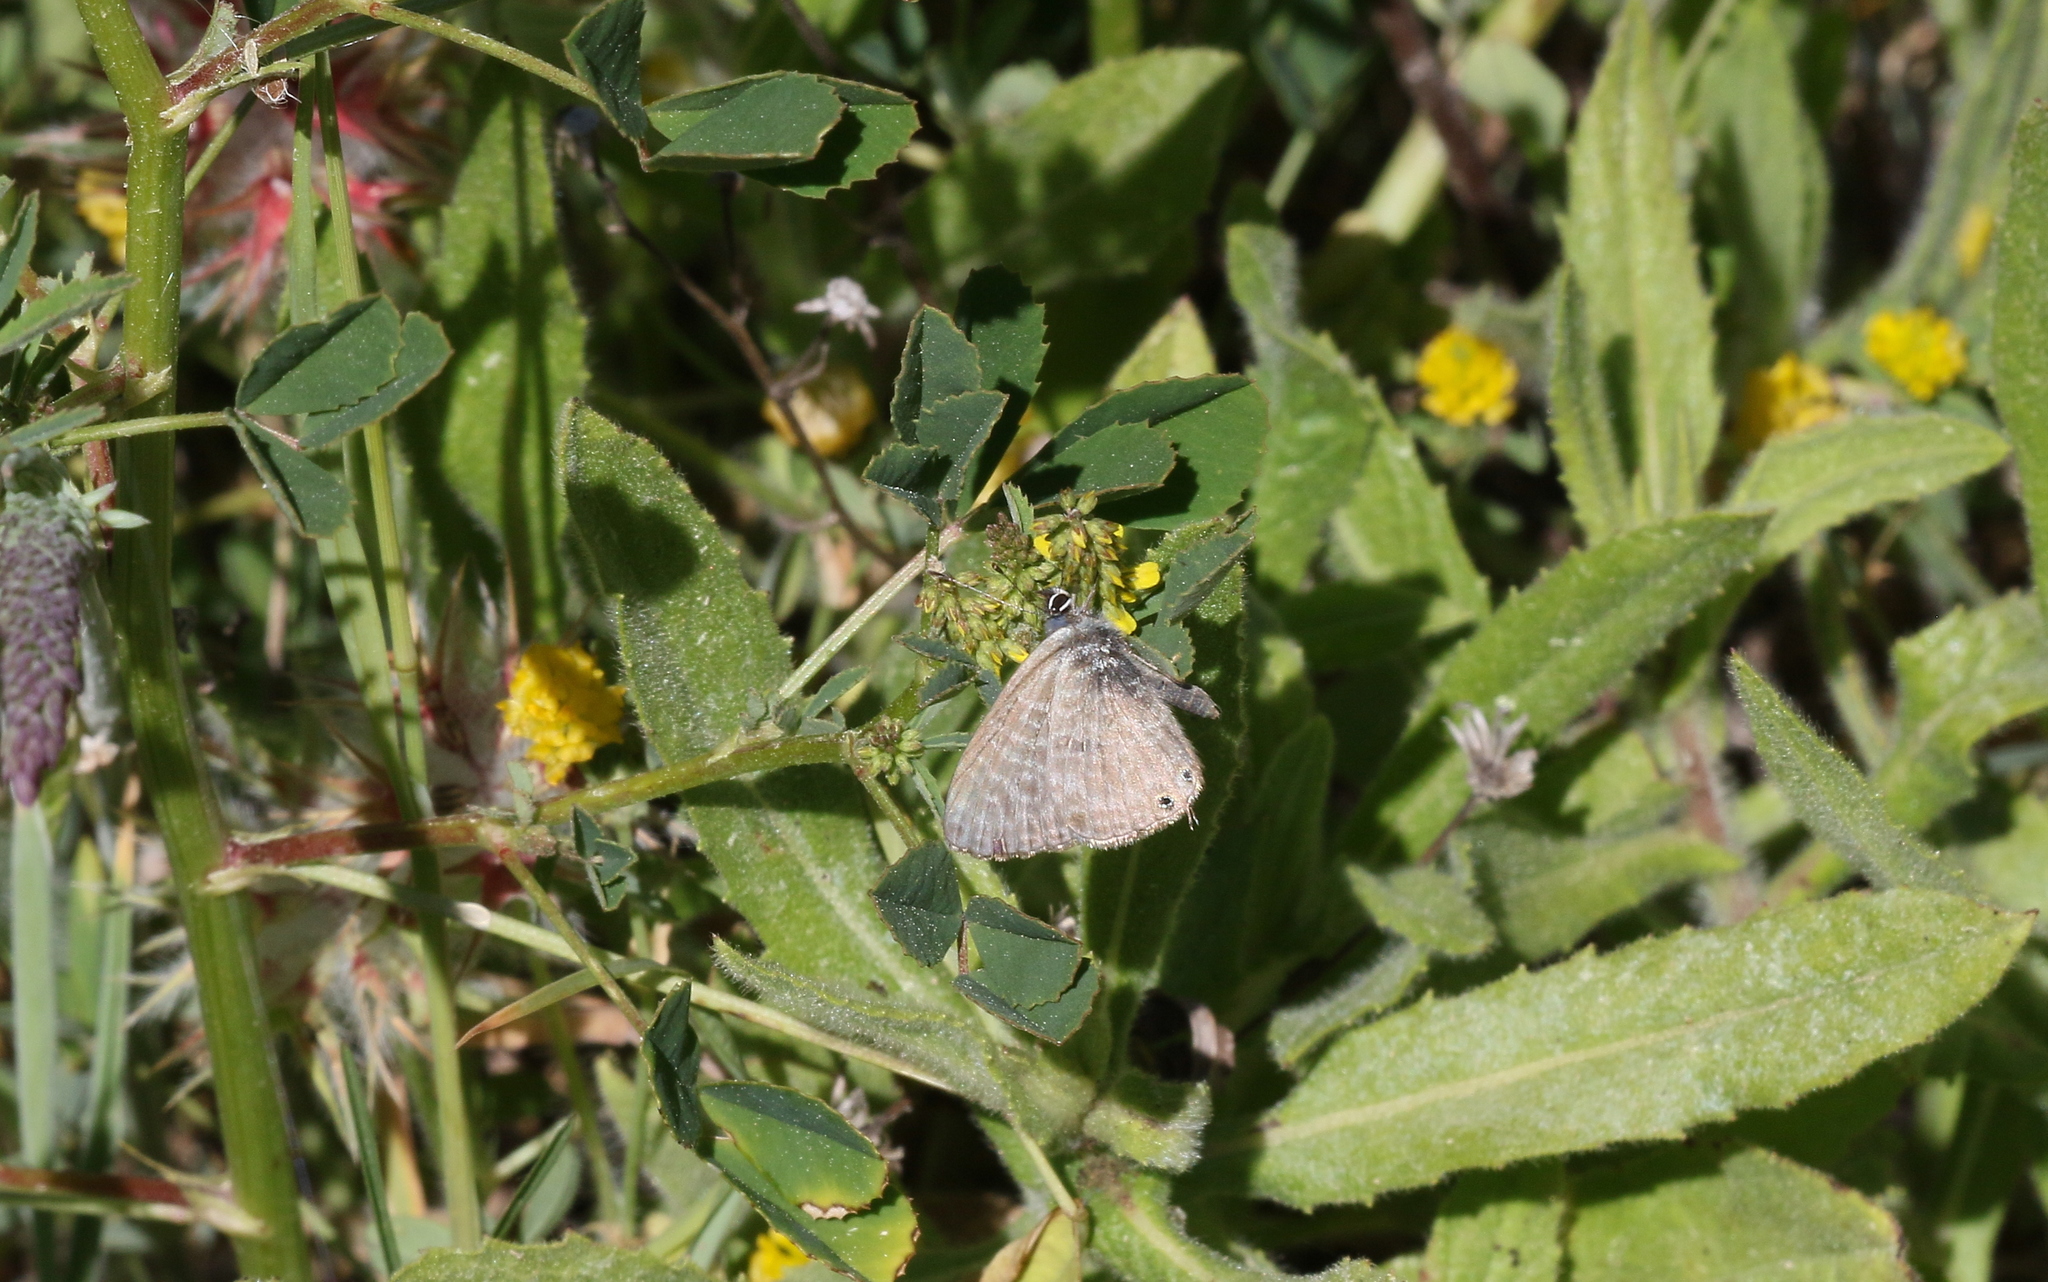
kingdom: Animalia
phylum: Arthropoda
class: Insecta
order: Lepidoptera
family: Lycaenidae
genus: Leptotes
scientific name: Leptotes pirithous
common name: Lang's short-tailed blue
